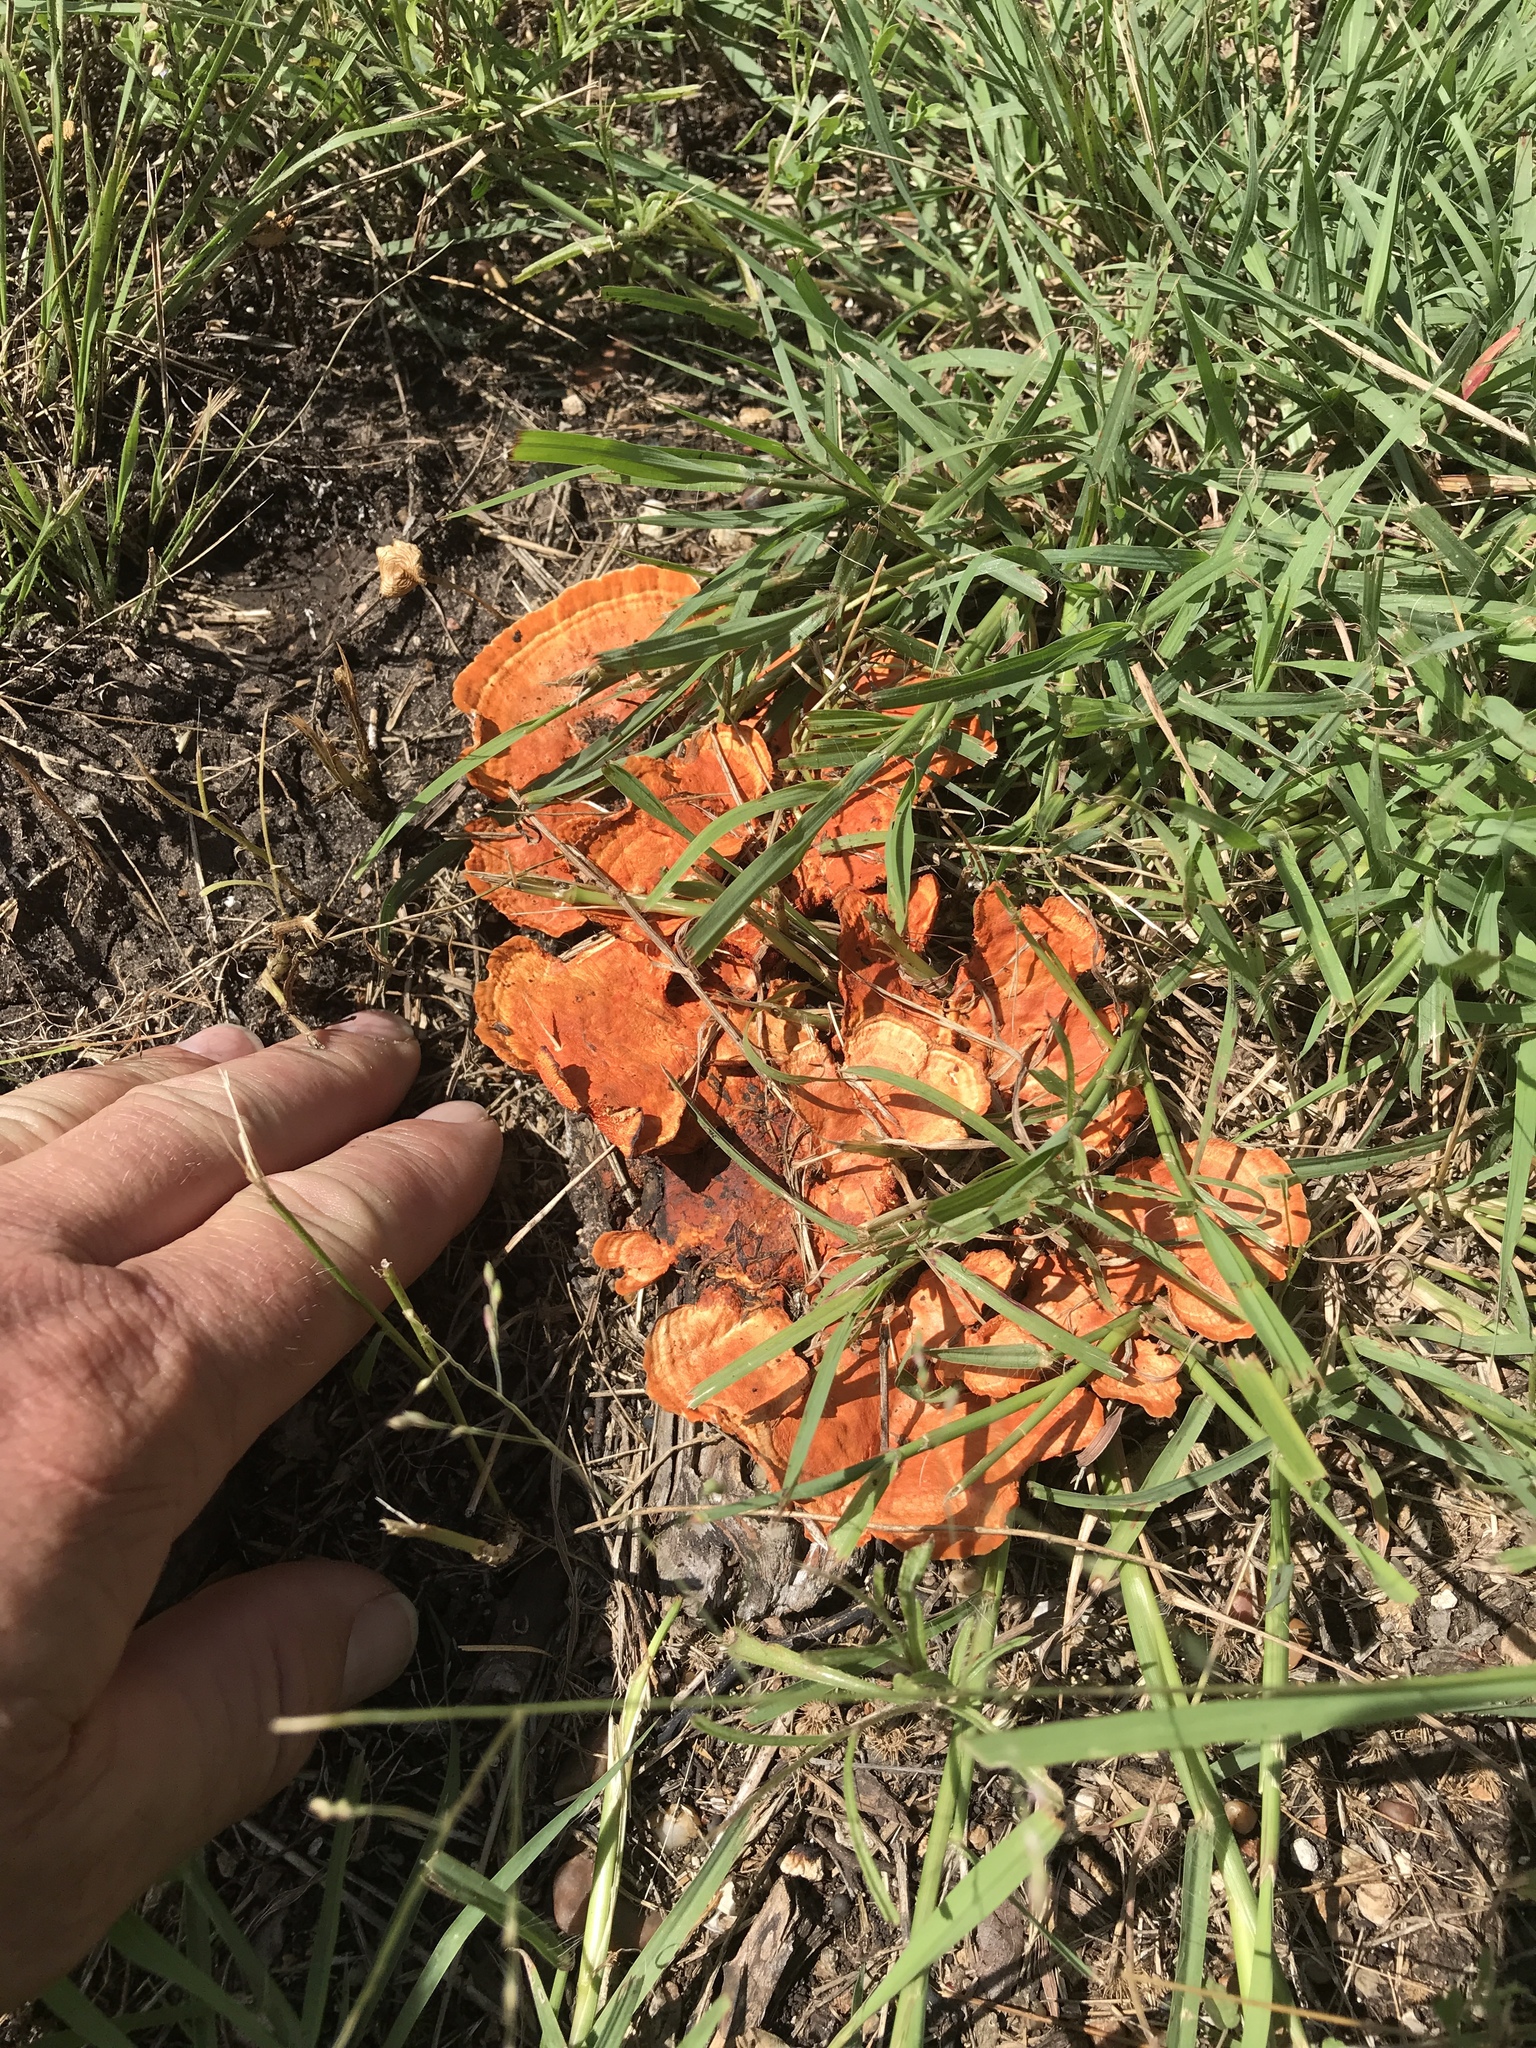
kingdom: Fungi
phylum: Basidiomycota
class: Agaricomycetes
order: Polyporales
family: Polyporaceae
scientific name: Polyporaceae
